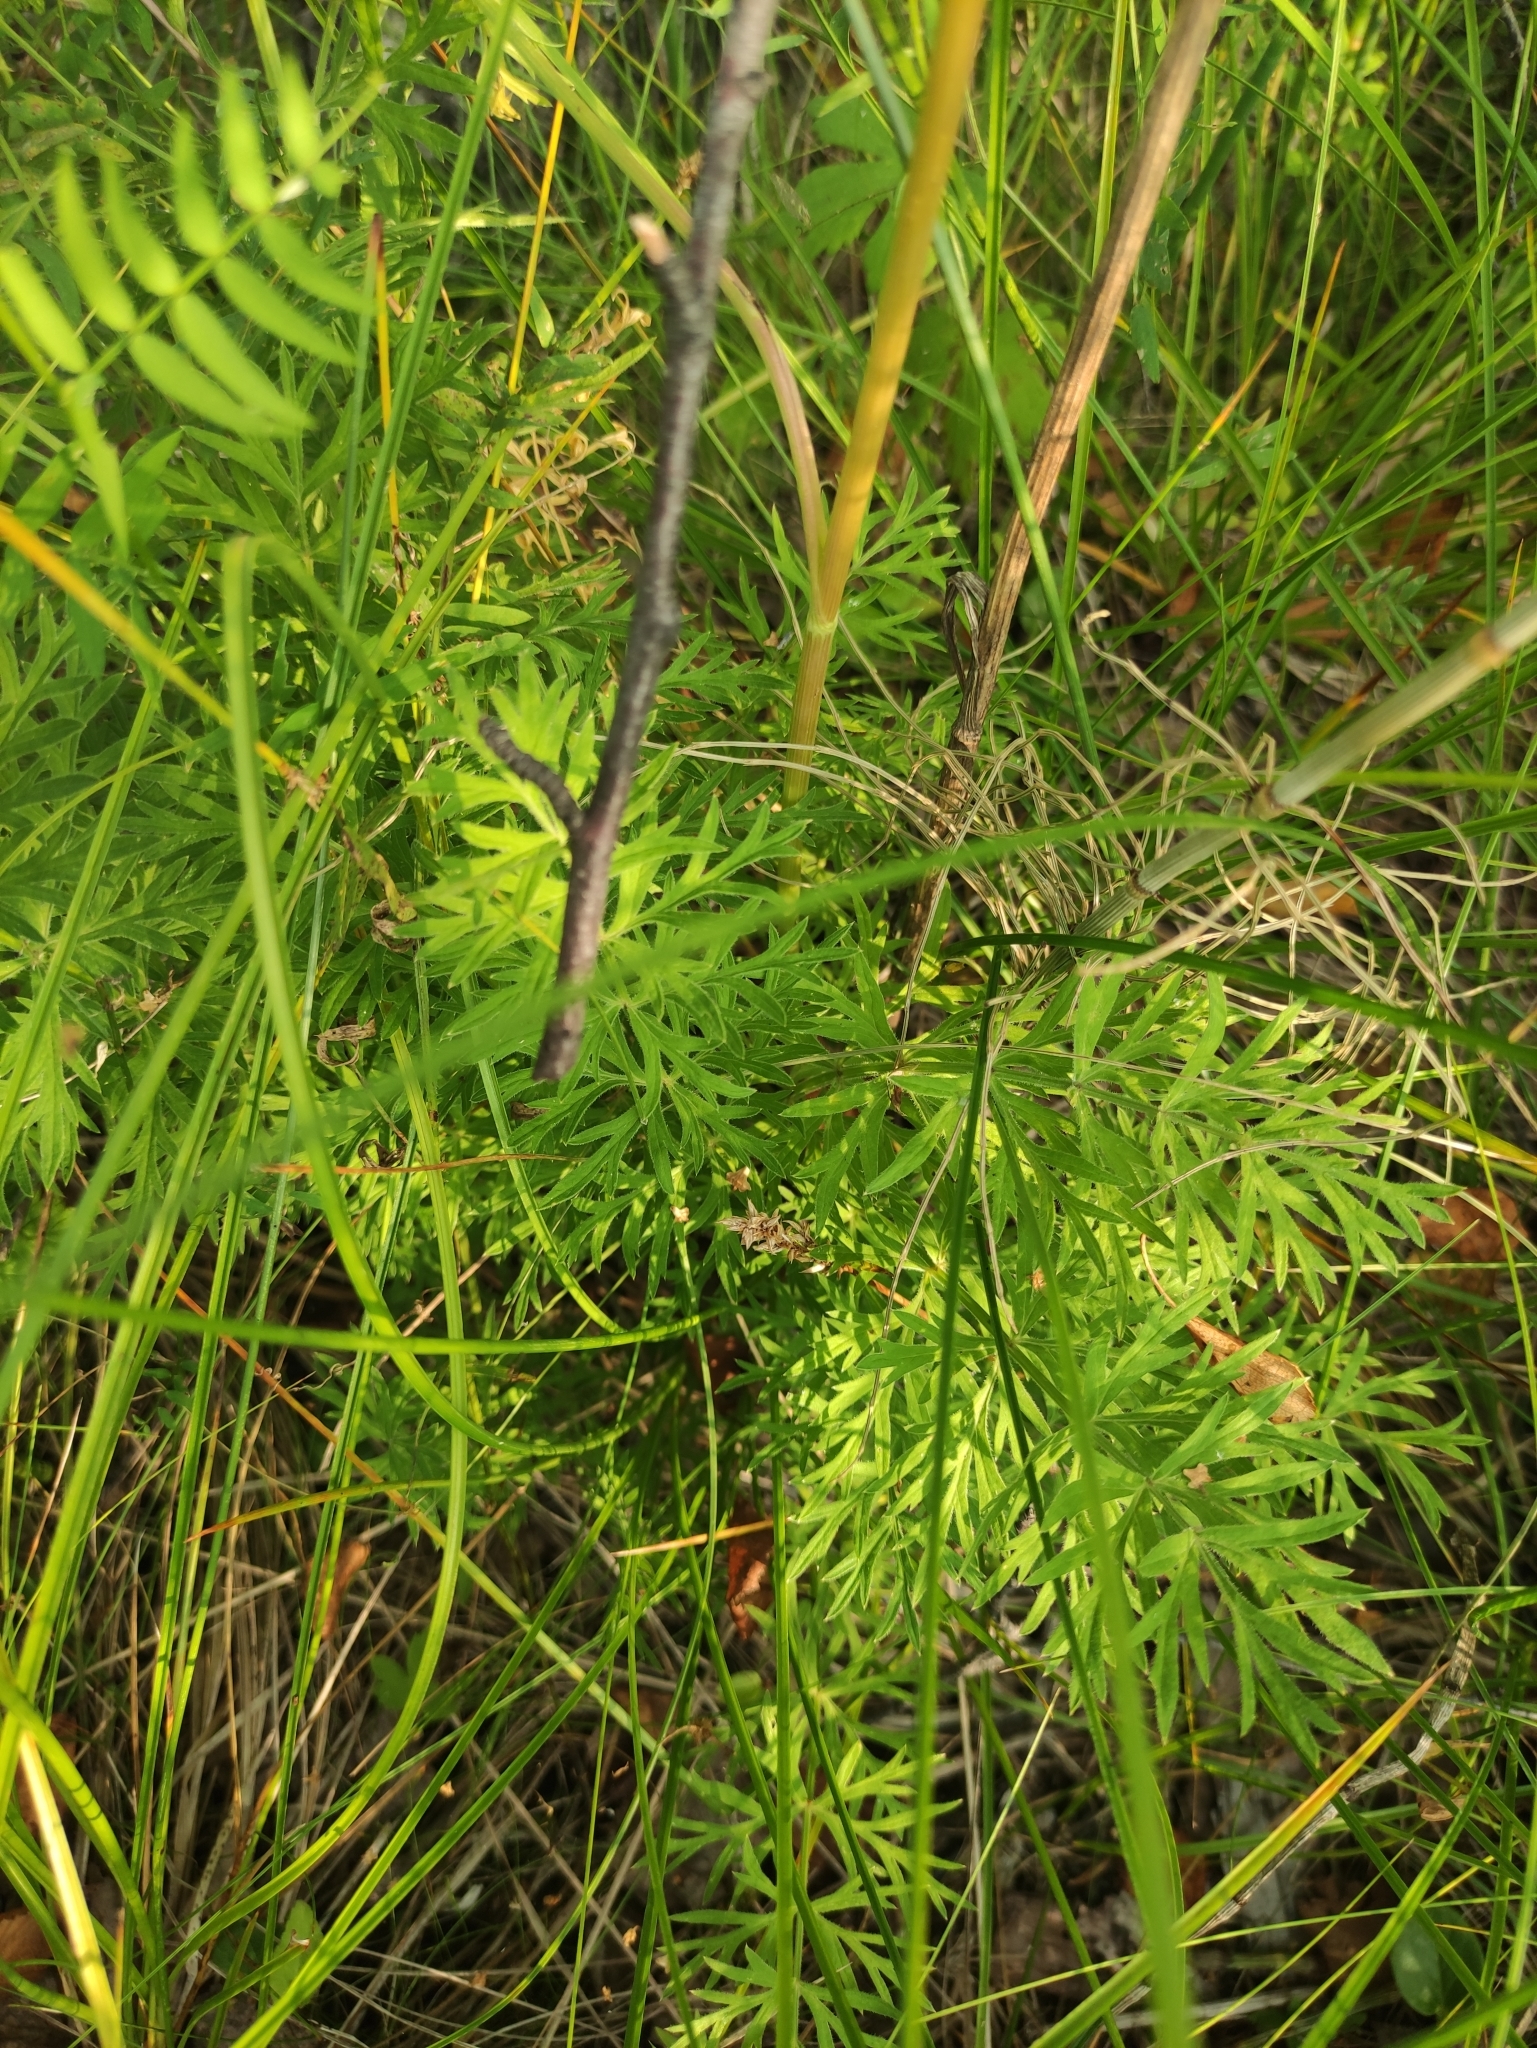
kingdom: Plantae
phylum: Tracheophyta
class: Magnoliopsida
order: Apiales
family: Apiaceae
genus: Seseli
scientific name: Seseli condensatum
